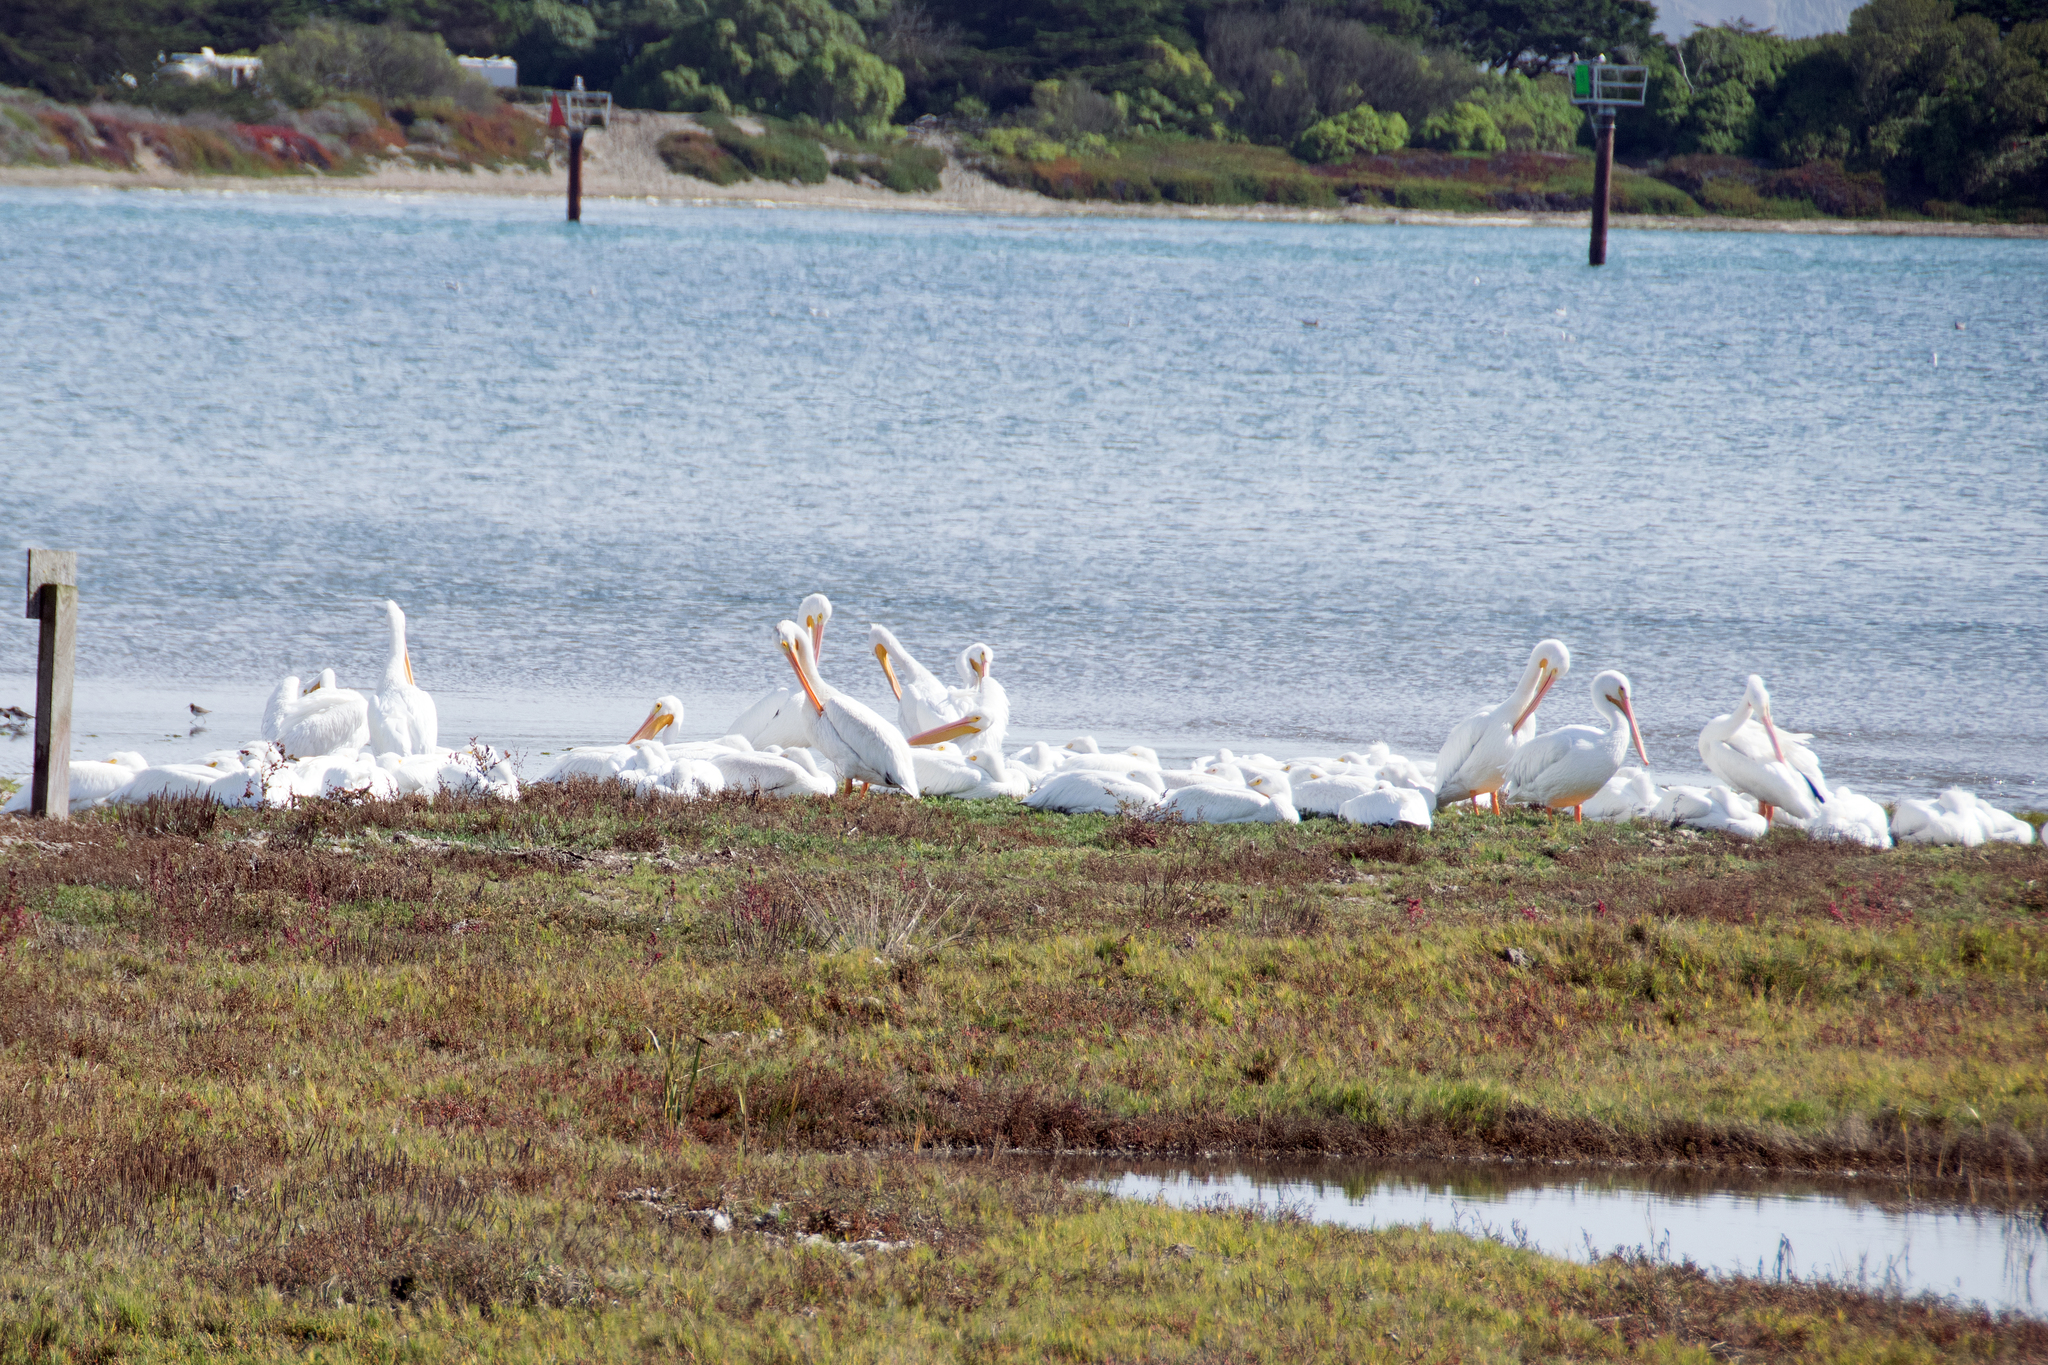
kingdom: Animalia
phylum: Chordata
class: Aves
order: Pelecaniformes
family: Pelecanidae
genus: Pelecanus
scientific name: Pelecanus erythrorhynchos
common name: American white pelican
